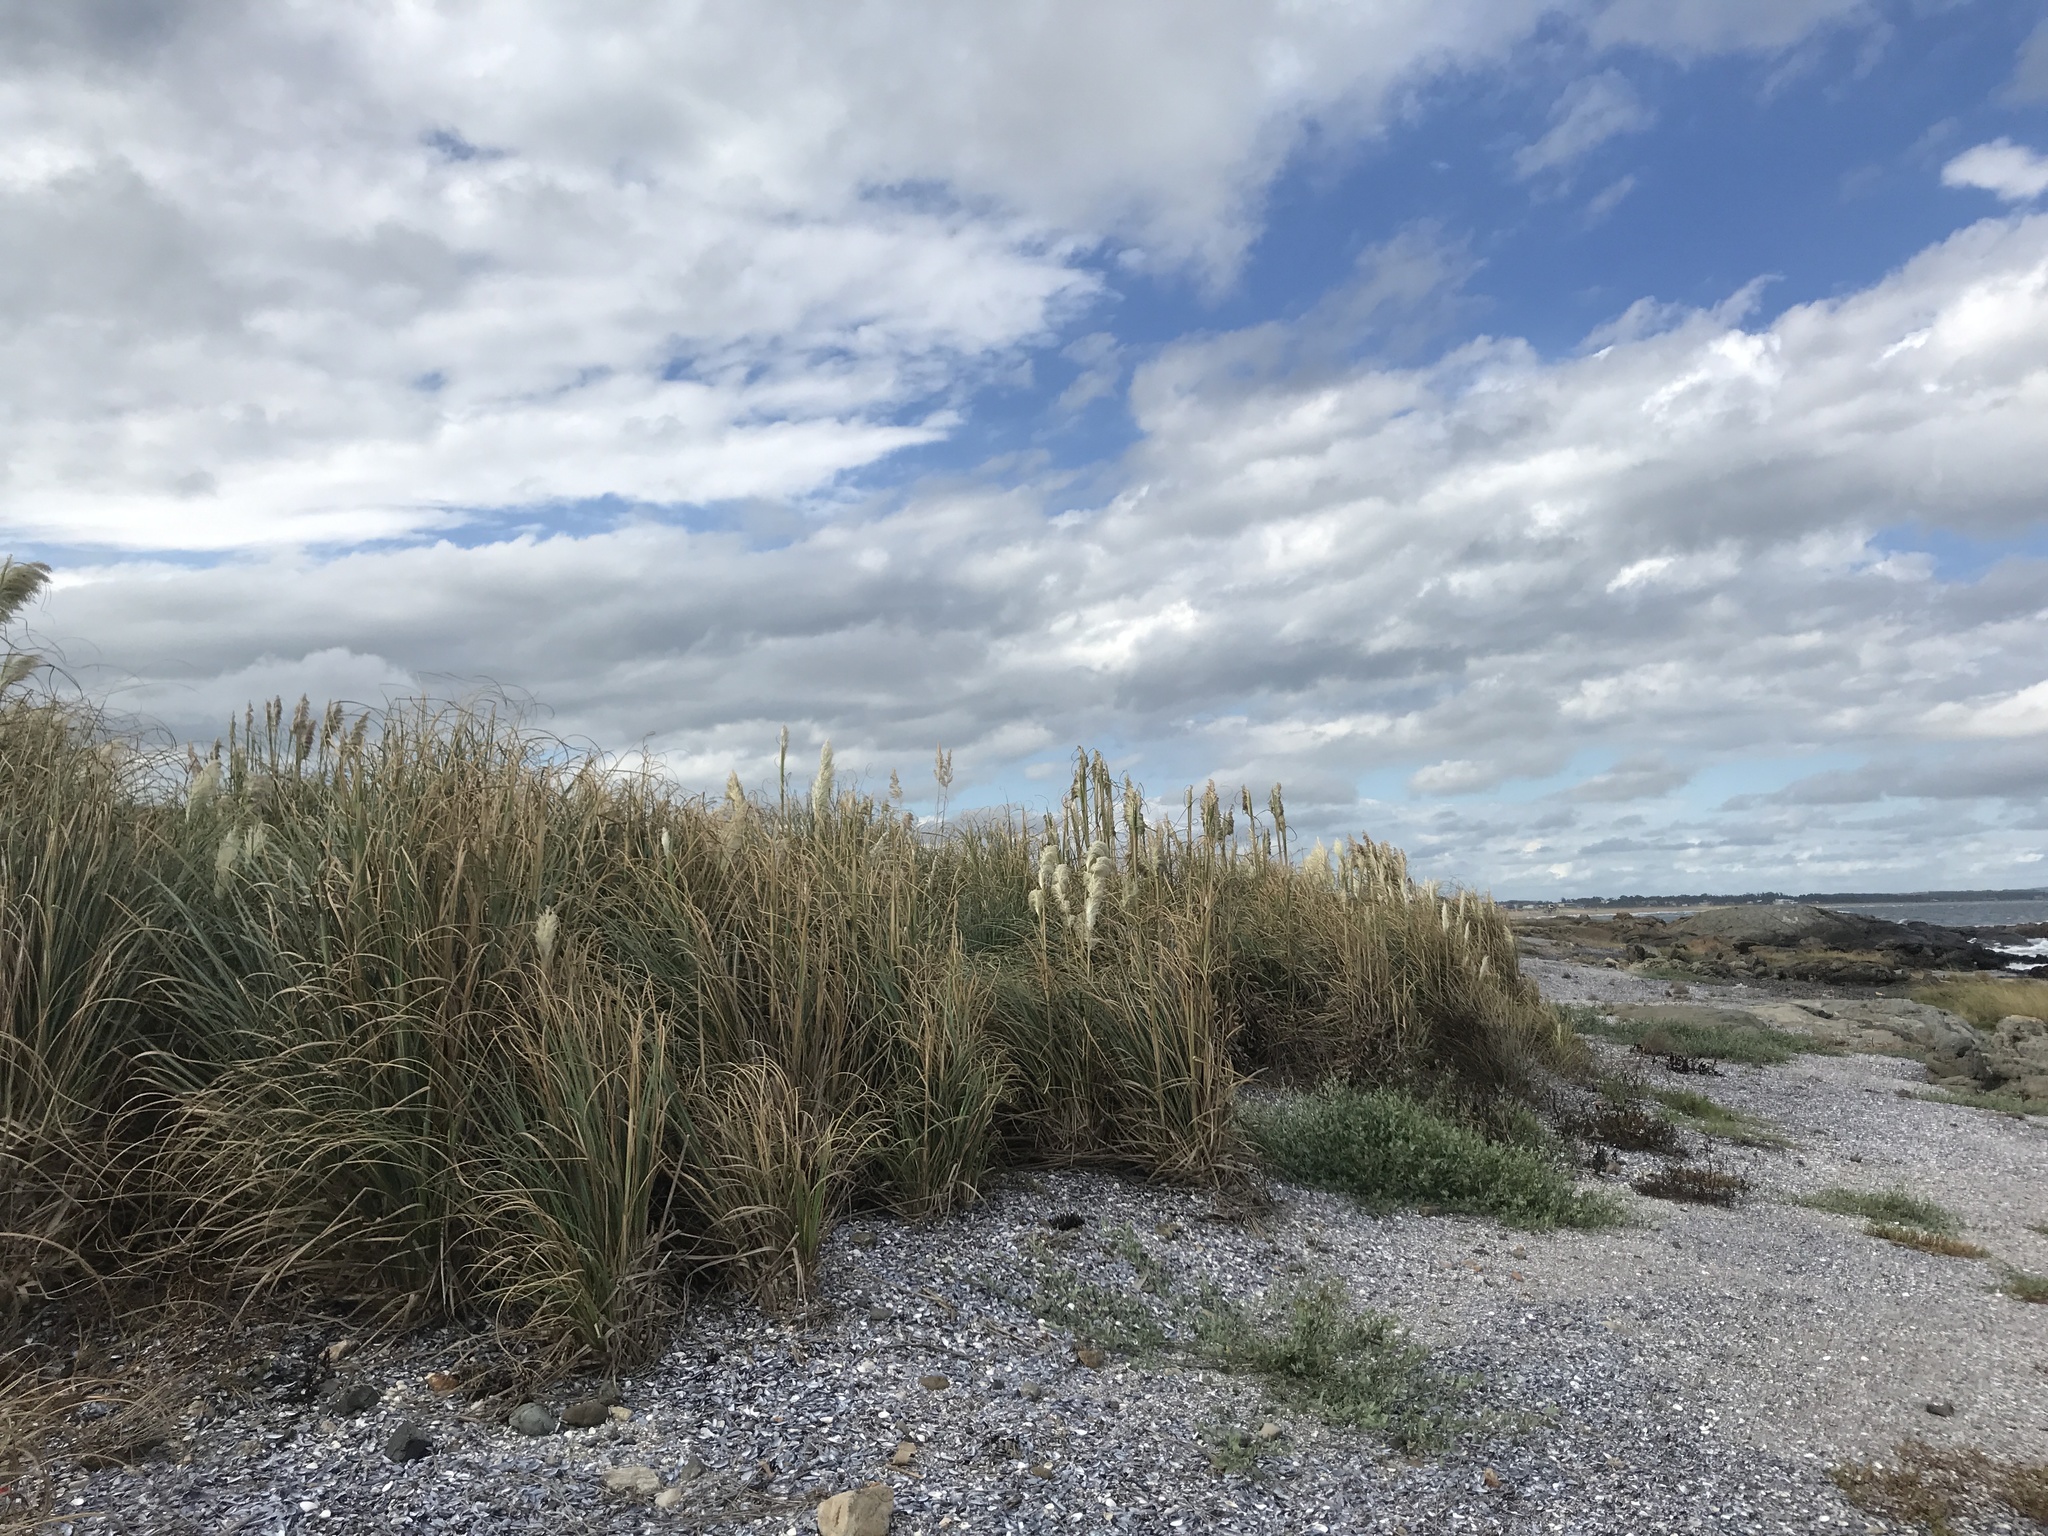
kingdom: Plantae
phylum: Tracheophyta
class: Liliopsida
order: Poales
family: Poaceae
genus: Cortaderia
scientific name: Cortaderia selloana
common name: Uruguayan pampas grass
